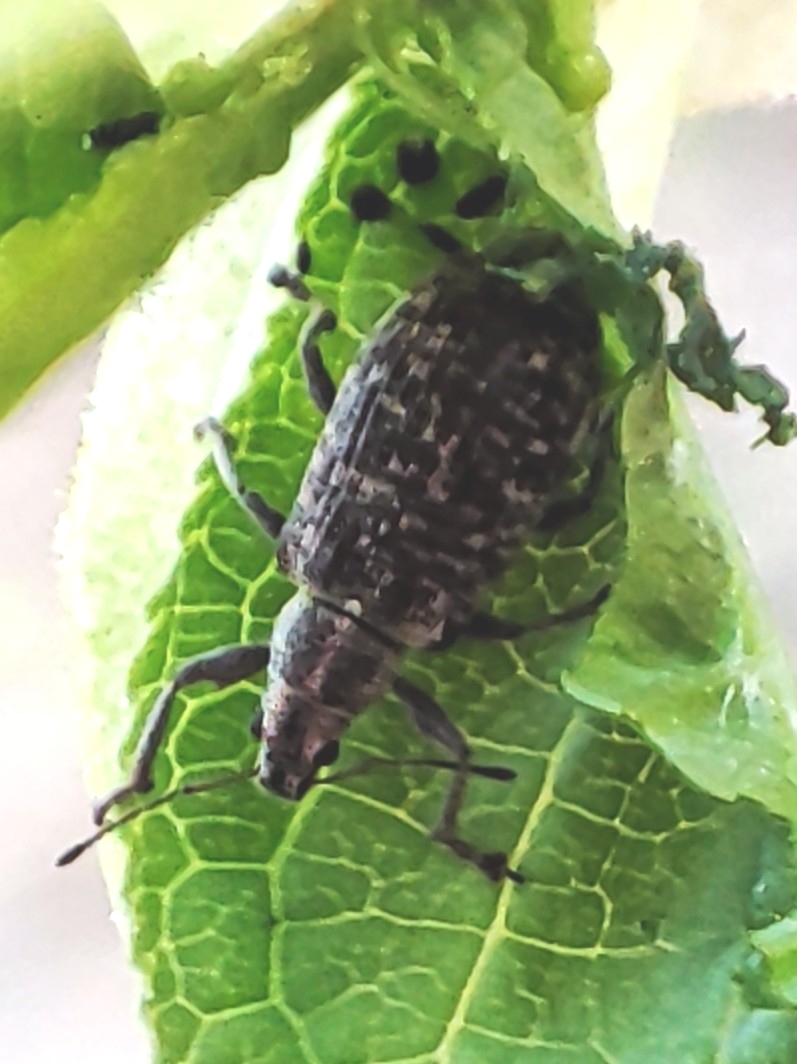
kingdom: Animalia
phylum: Arthropoda
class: Insecta
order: Coleoptera
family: Curculionidae
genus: Polydrusus
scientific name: Polydrusus pilosus
